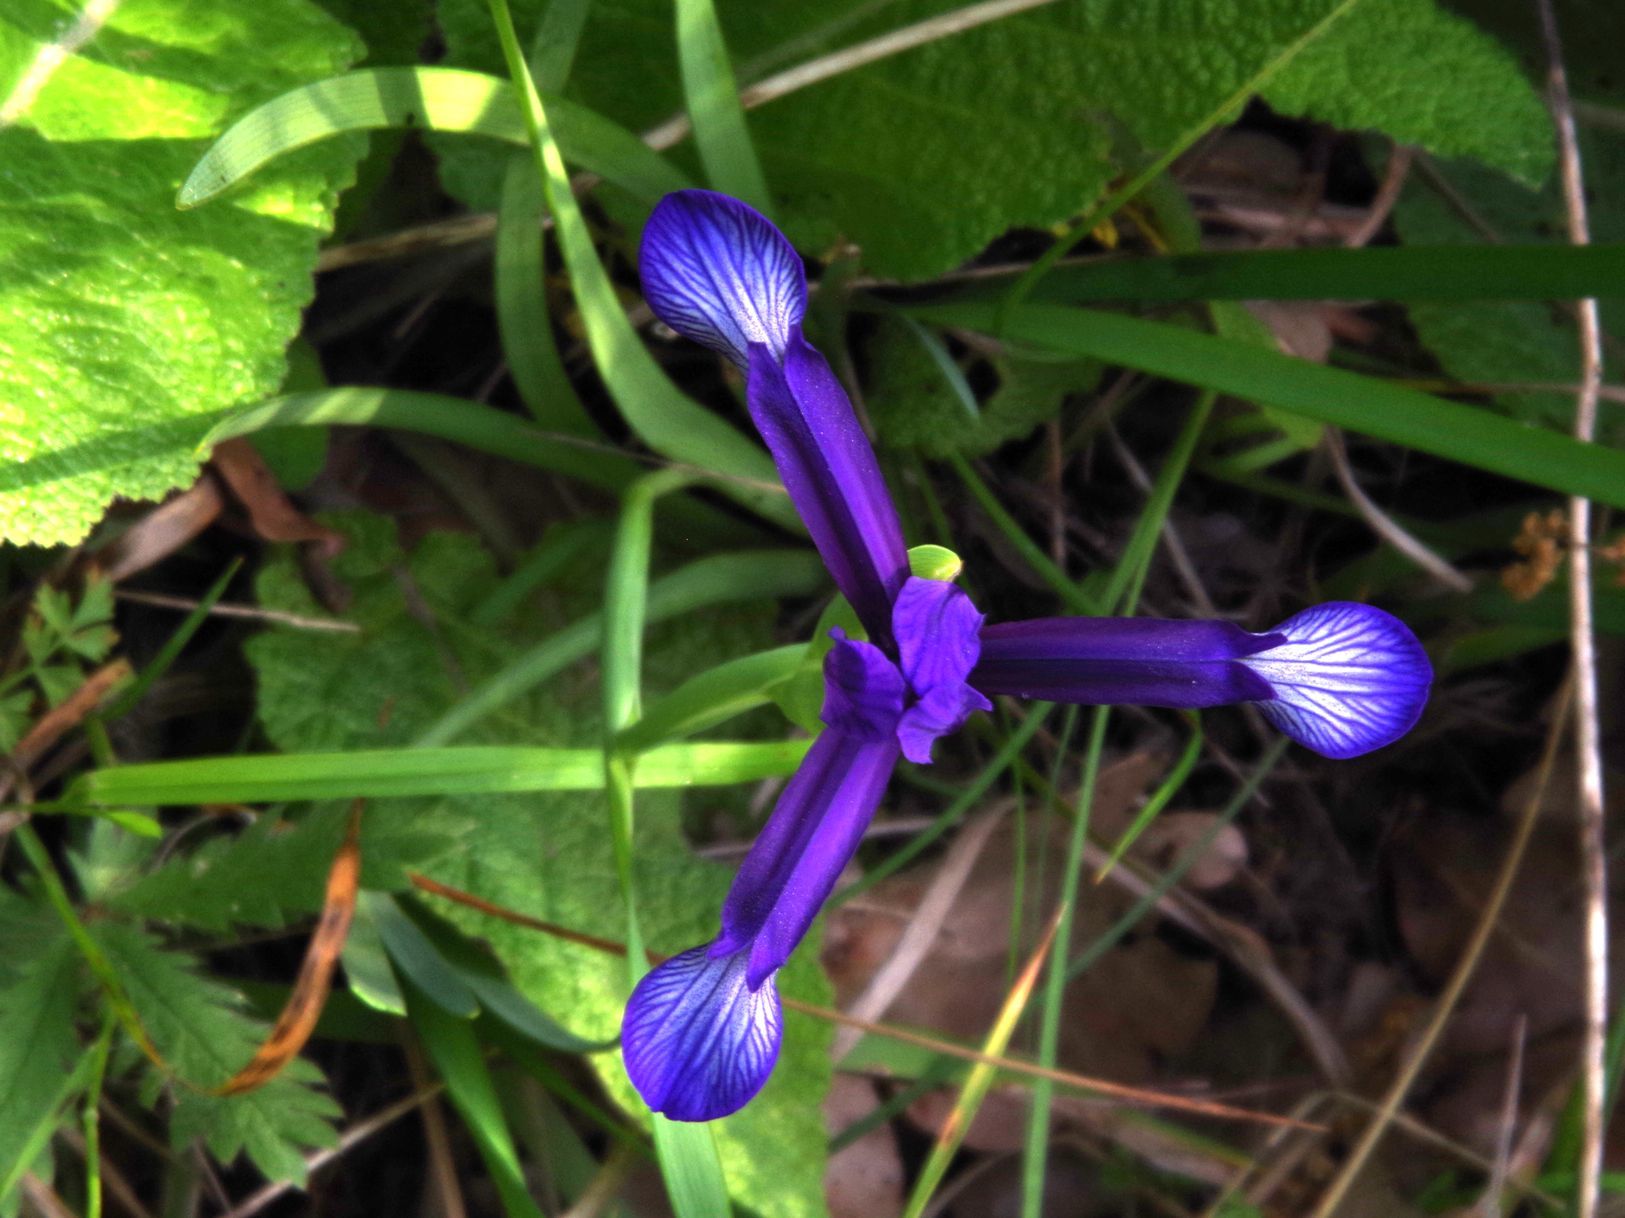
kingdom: Plantae
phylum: Tracheophyta
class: Liliopsida
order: Asparagales
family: Iridaceae
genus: Iris
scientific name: Iris sintenisii
